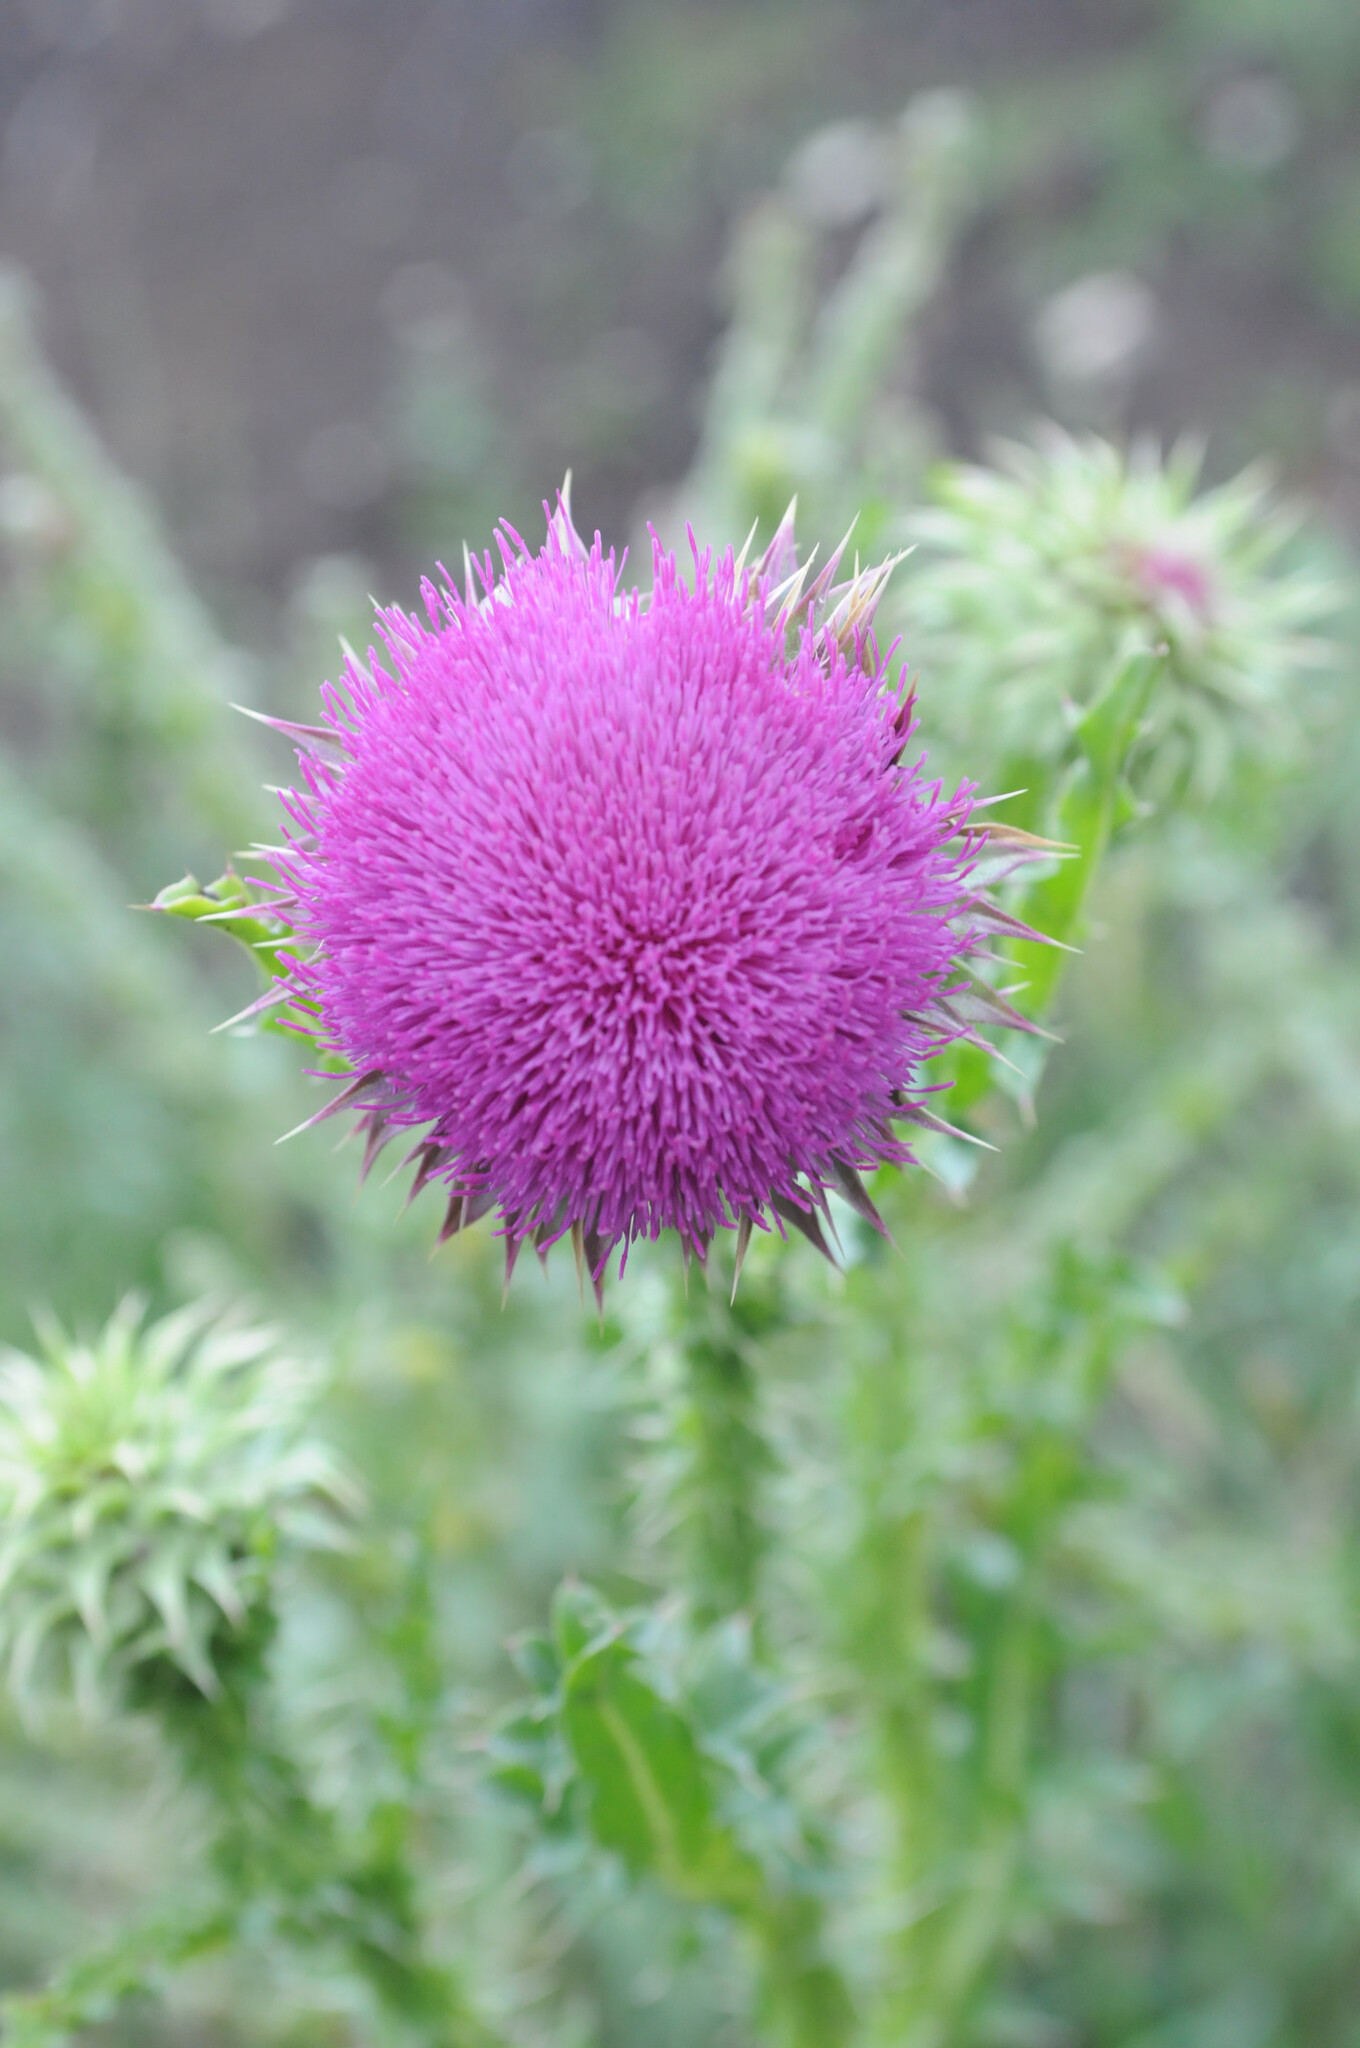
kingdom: Plantae
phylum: Tracheophyta
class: Magnoliopsida
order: Asterales
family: Asteraceae
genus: Carduus
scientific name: Carduus nutans
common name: Musk thistle
